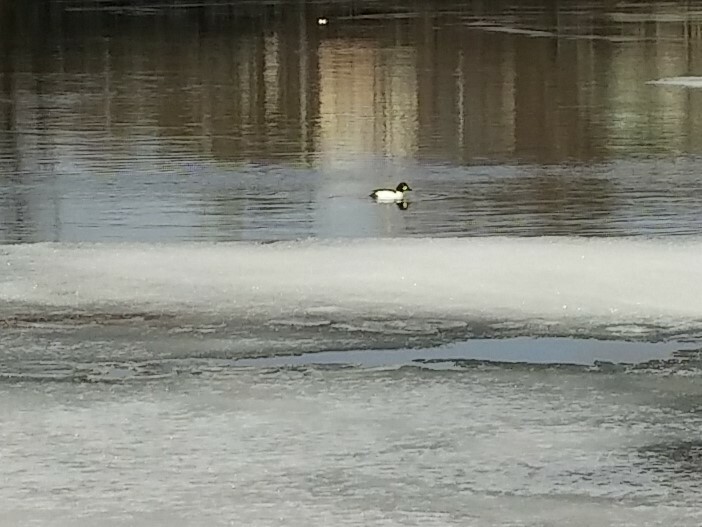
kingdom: Animalia
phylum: Chordata
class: Aves
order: Anseriformes
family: Anatidae
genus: Bucephala
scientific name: Bucephala clangula
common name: Common goldeneye
